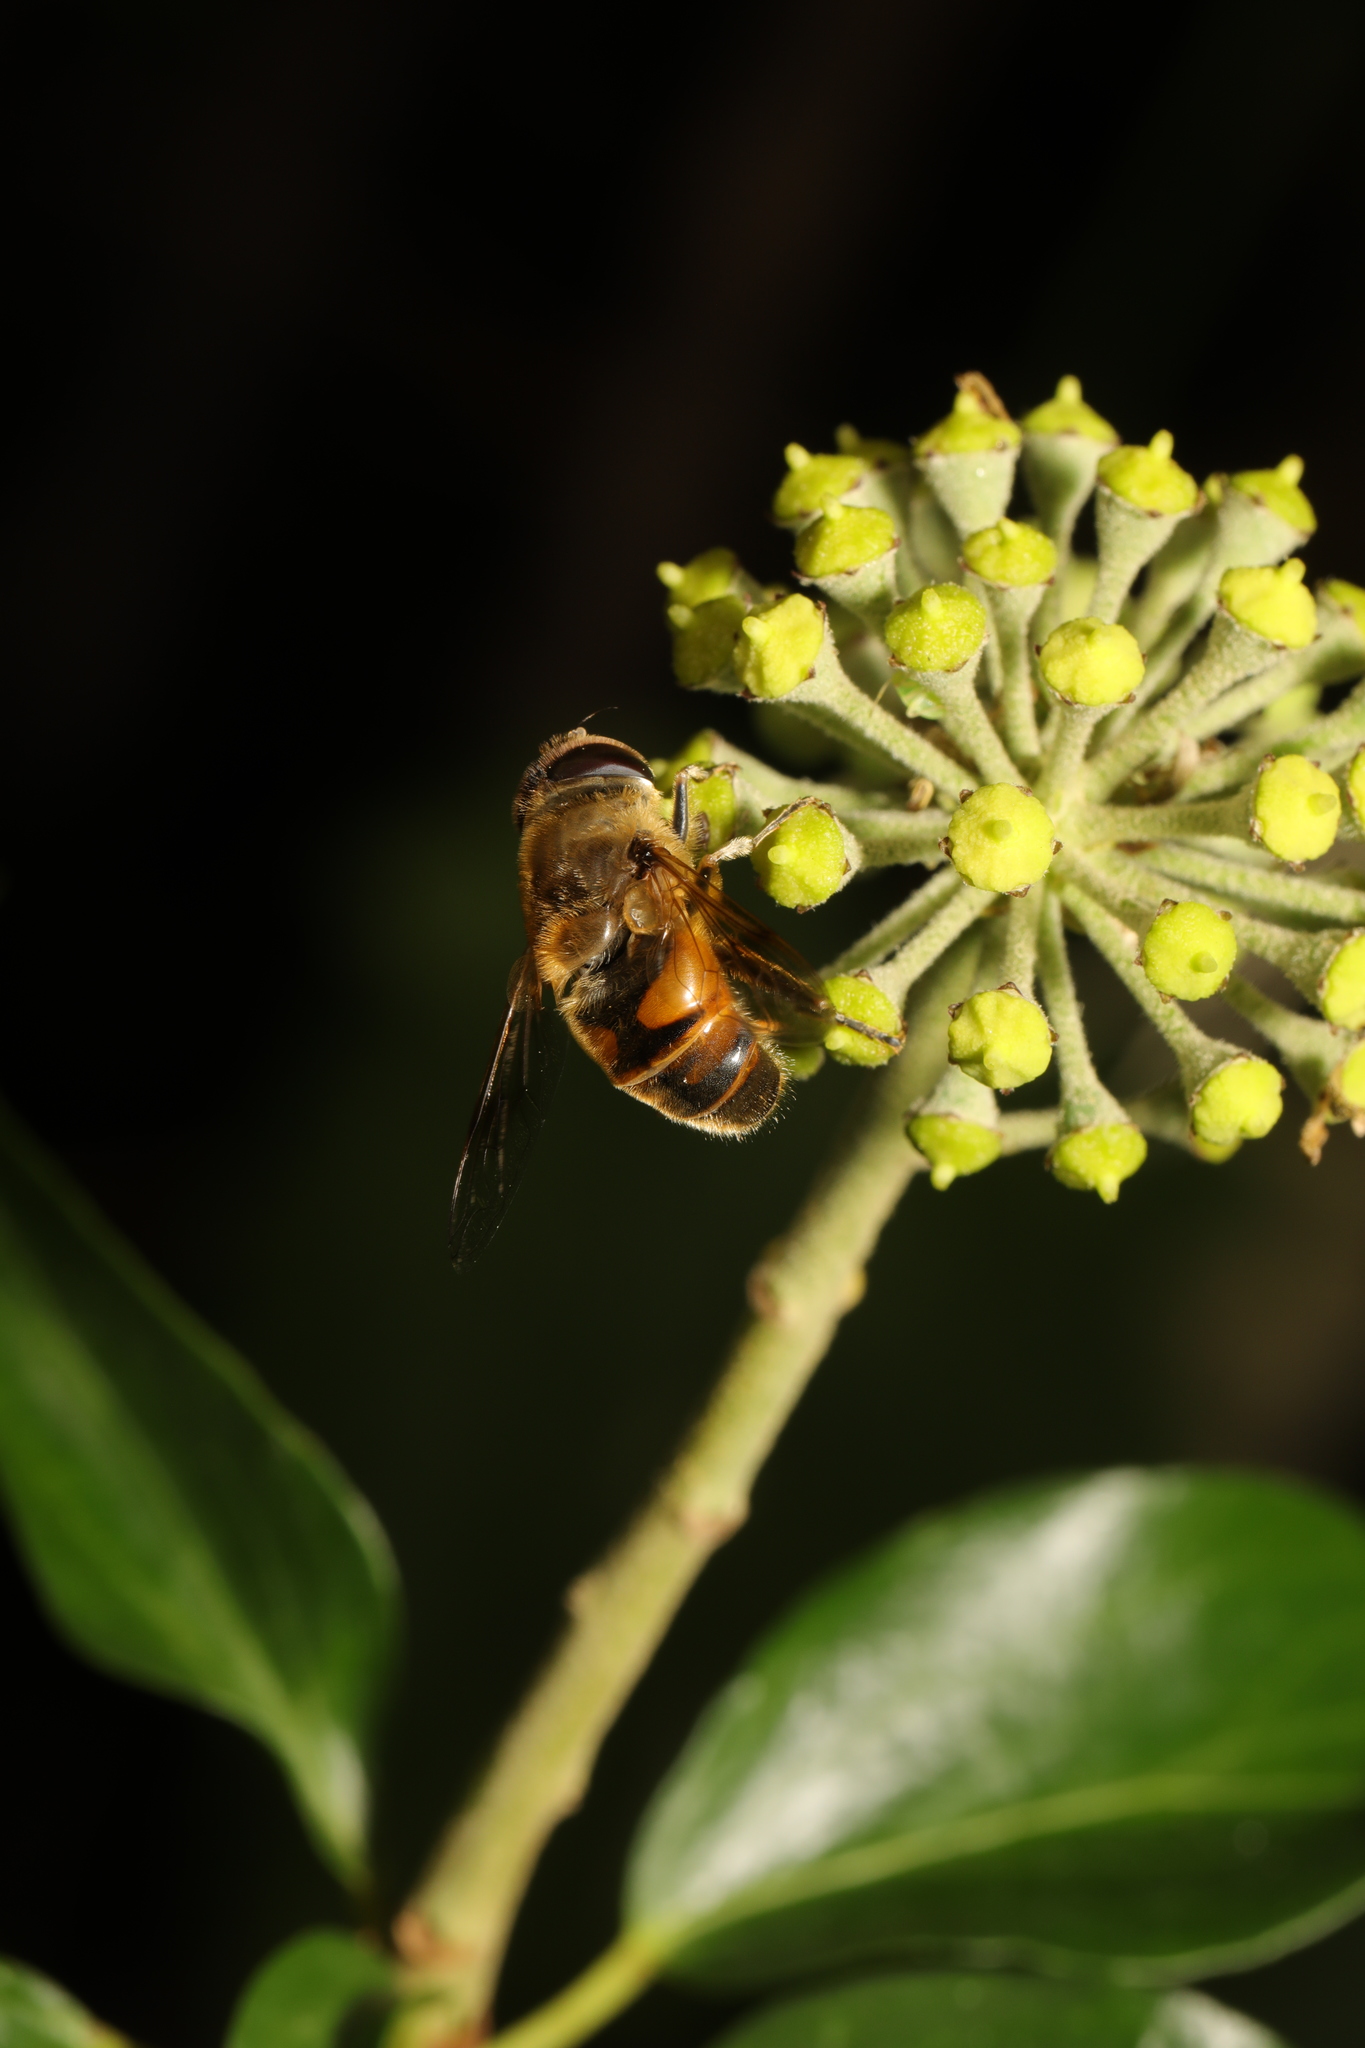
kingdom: Animalia
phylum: Arthropoda
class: Insecta
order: Diptera
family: Syrphidae
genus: Eristalis
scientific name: Eristalis tenax
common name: Drone fly
